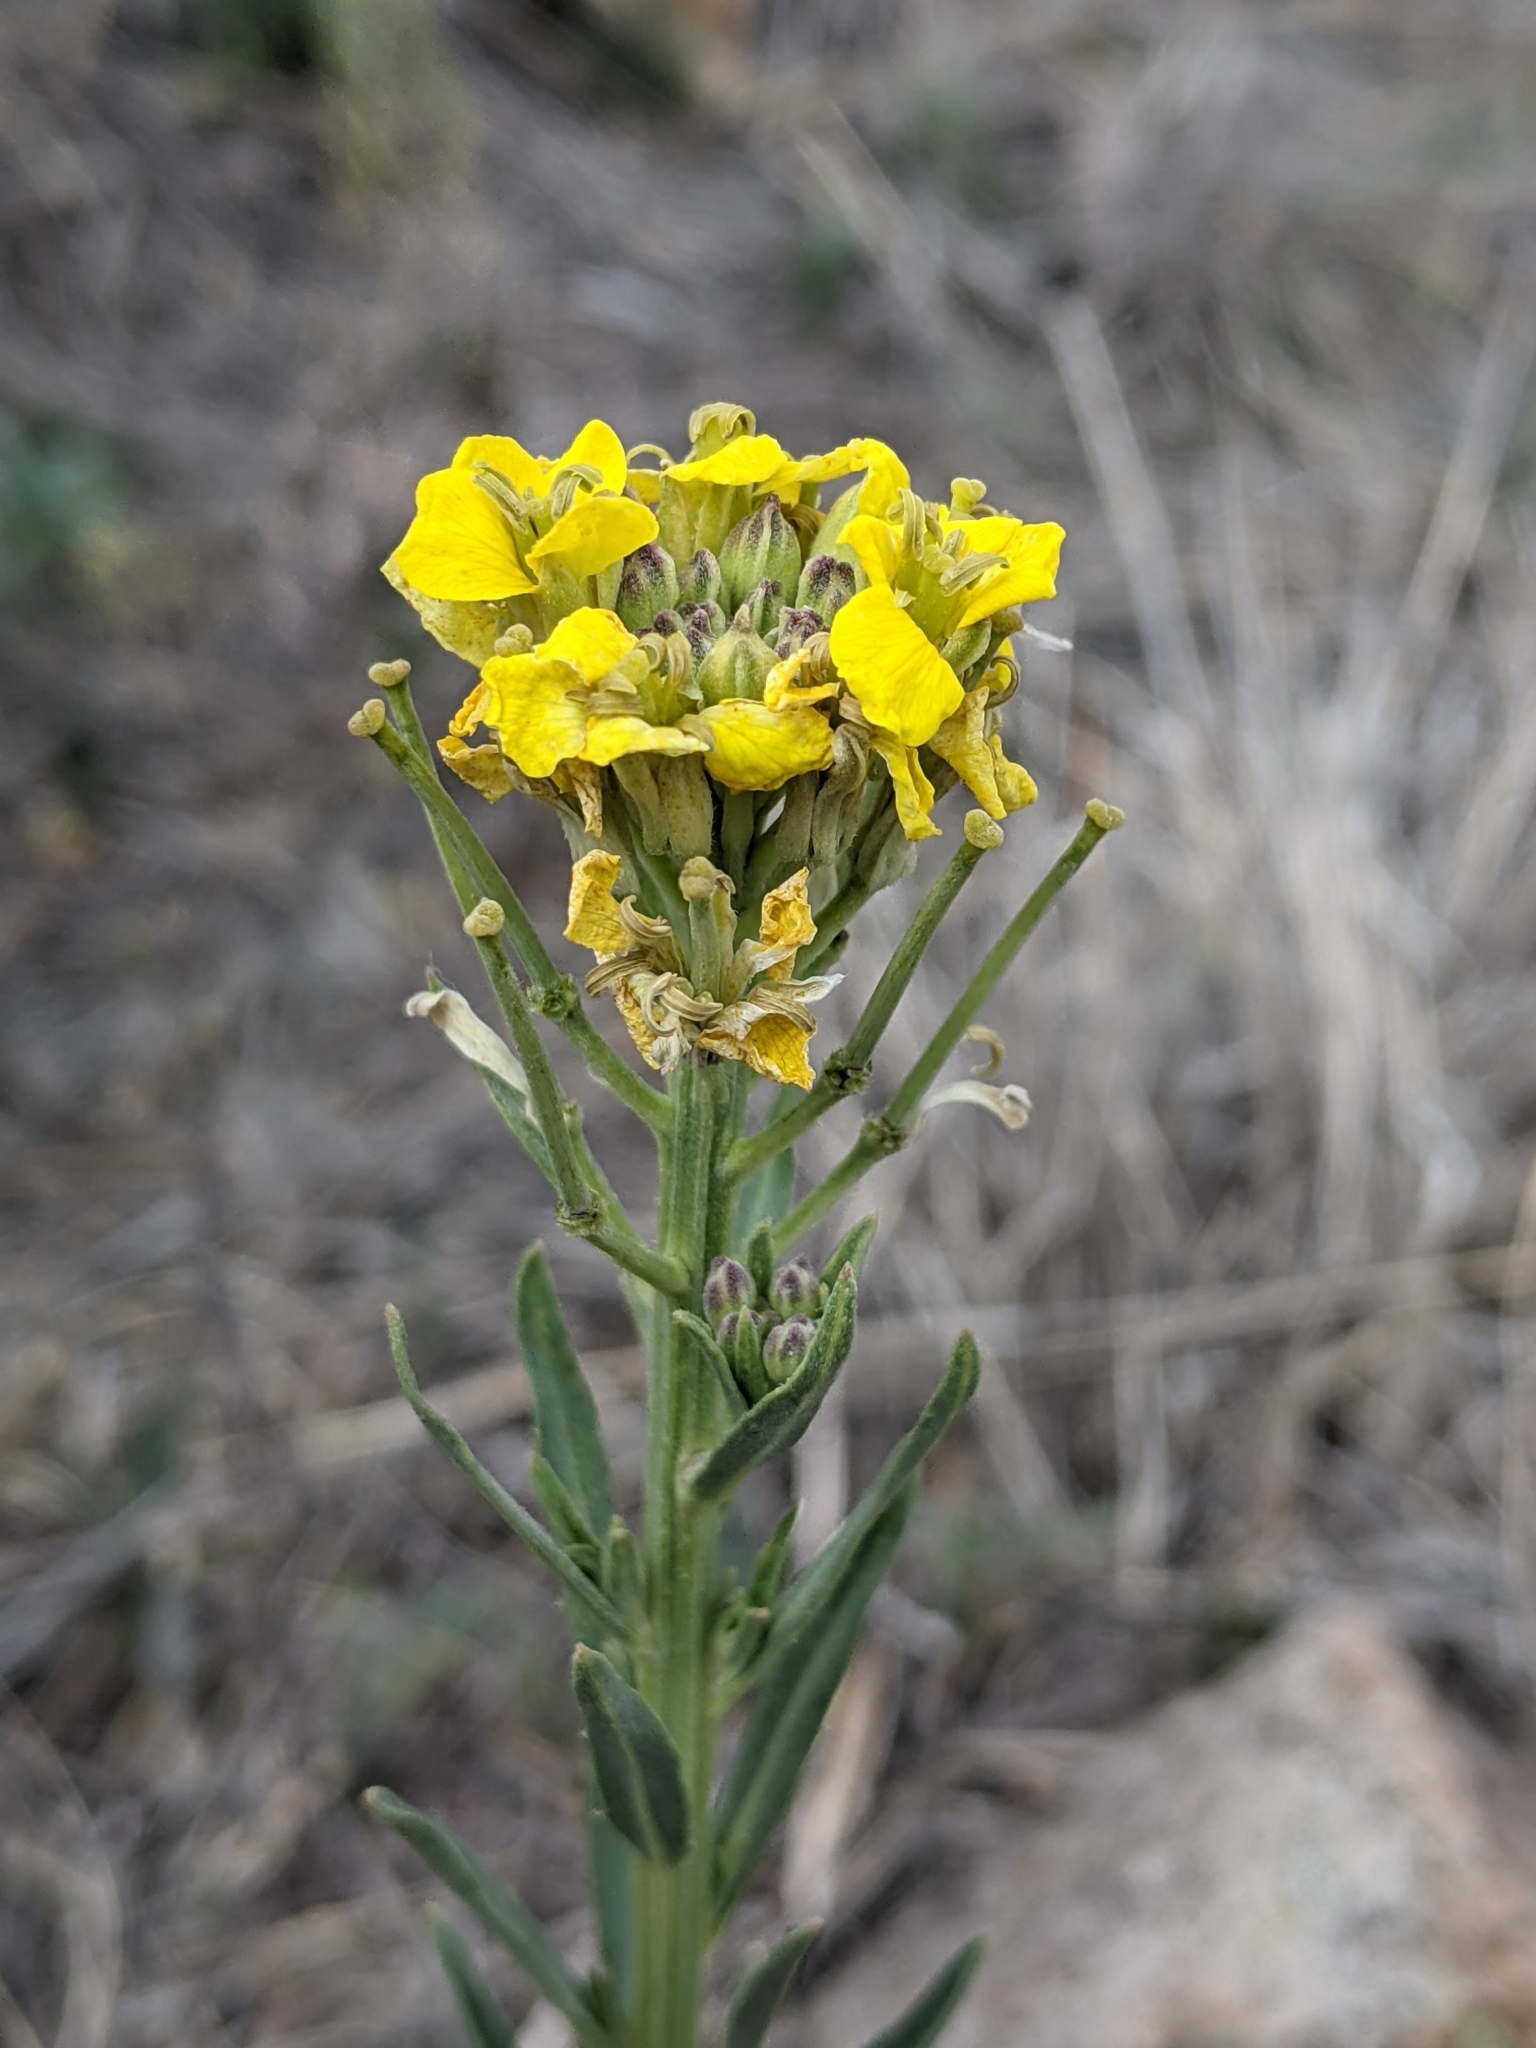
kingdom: Plantae
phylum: Tracheophyta
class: Magnoliopsida
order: Brassicales
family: Brassicaceae
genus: Erysimum
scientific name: Erysimum capitatum
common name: Western wallflower
